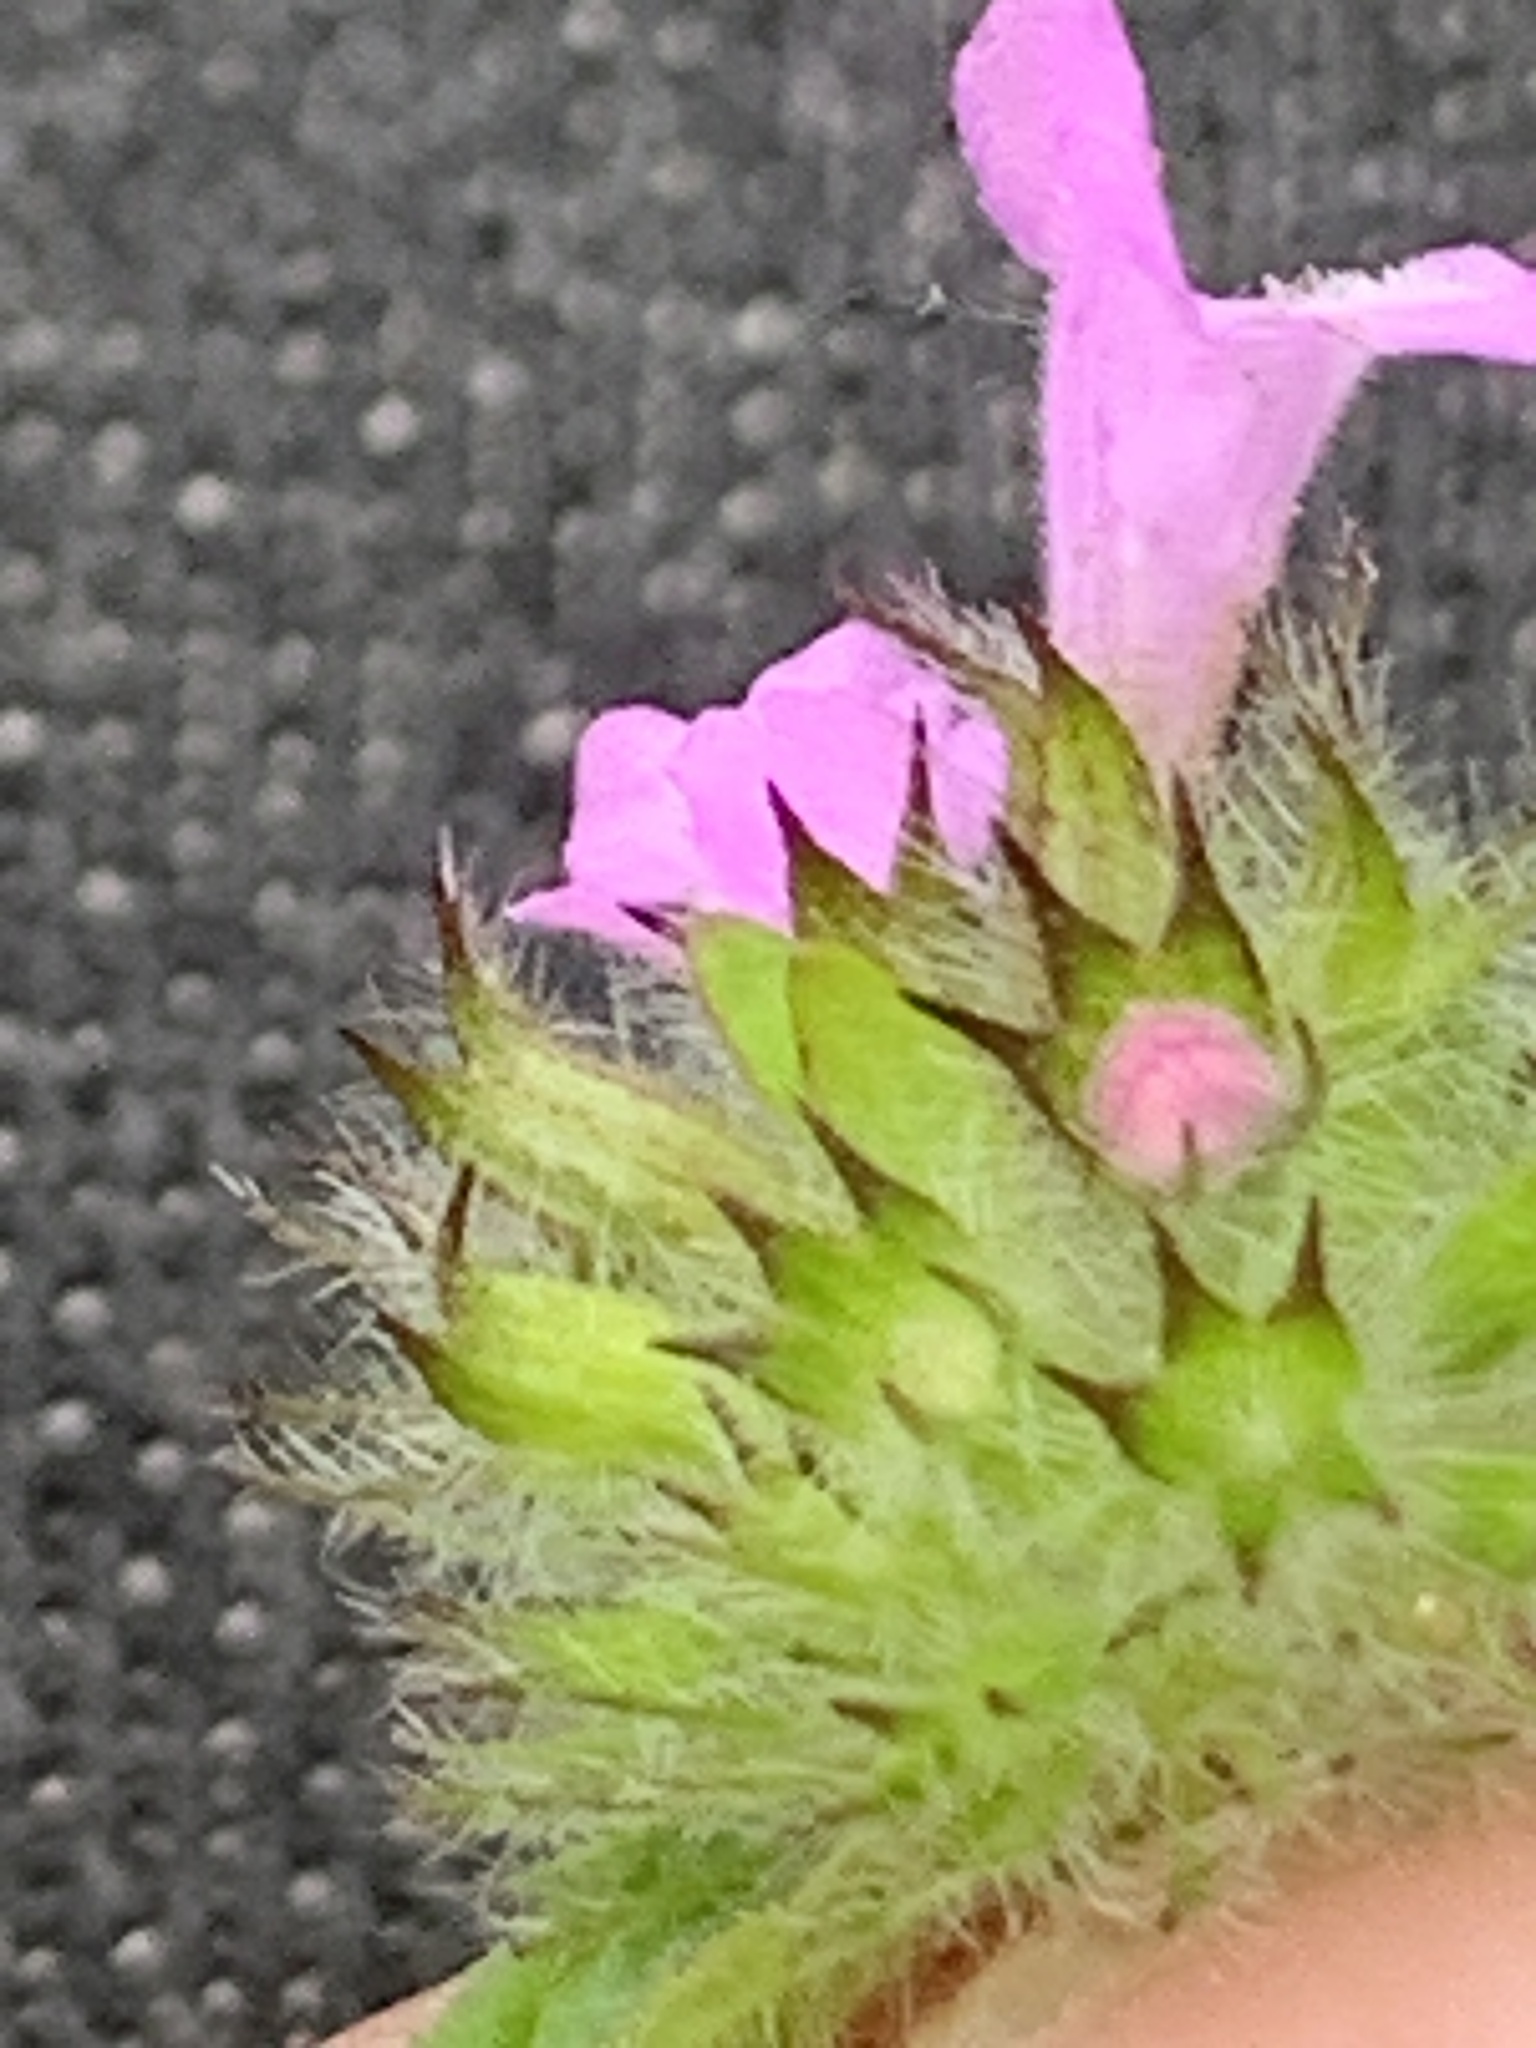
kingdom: Plantae
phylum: Tracheophyta
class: Magnoliopsida
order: Lamiales
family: Lamiaceae
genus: Clinopodium
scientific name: Clinopodium vulgare
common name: Wild basil
